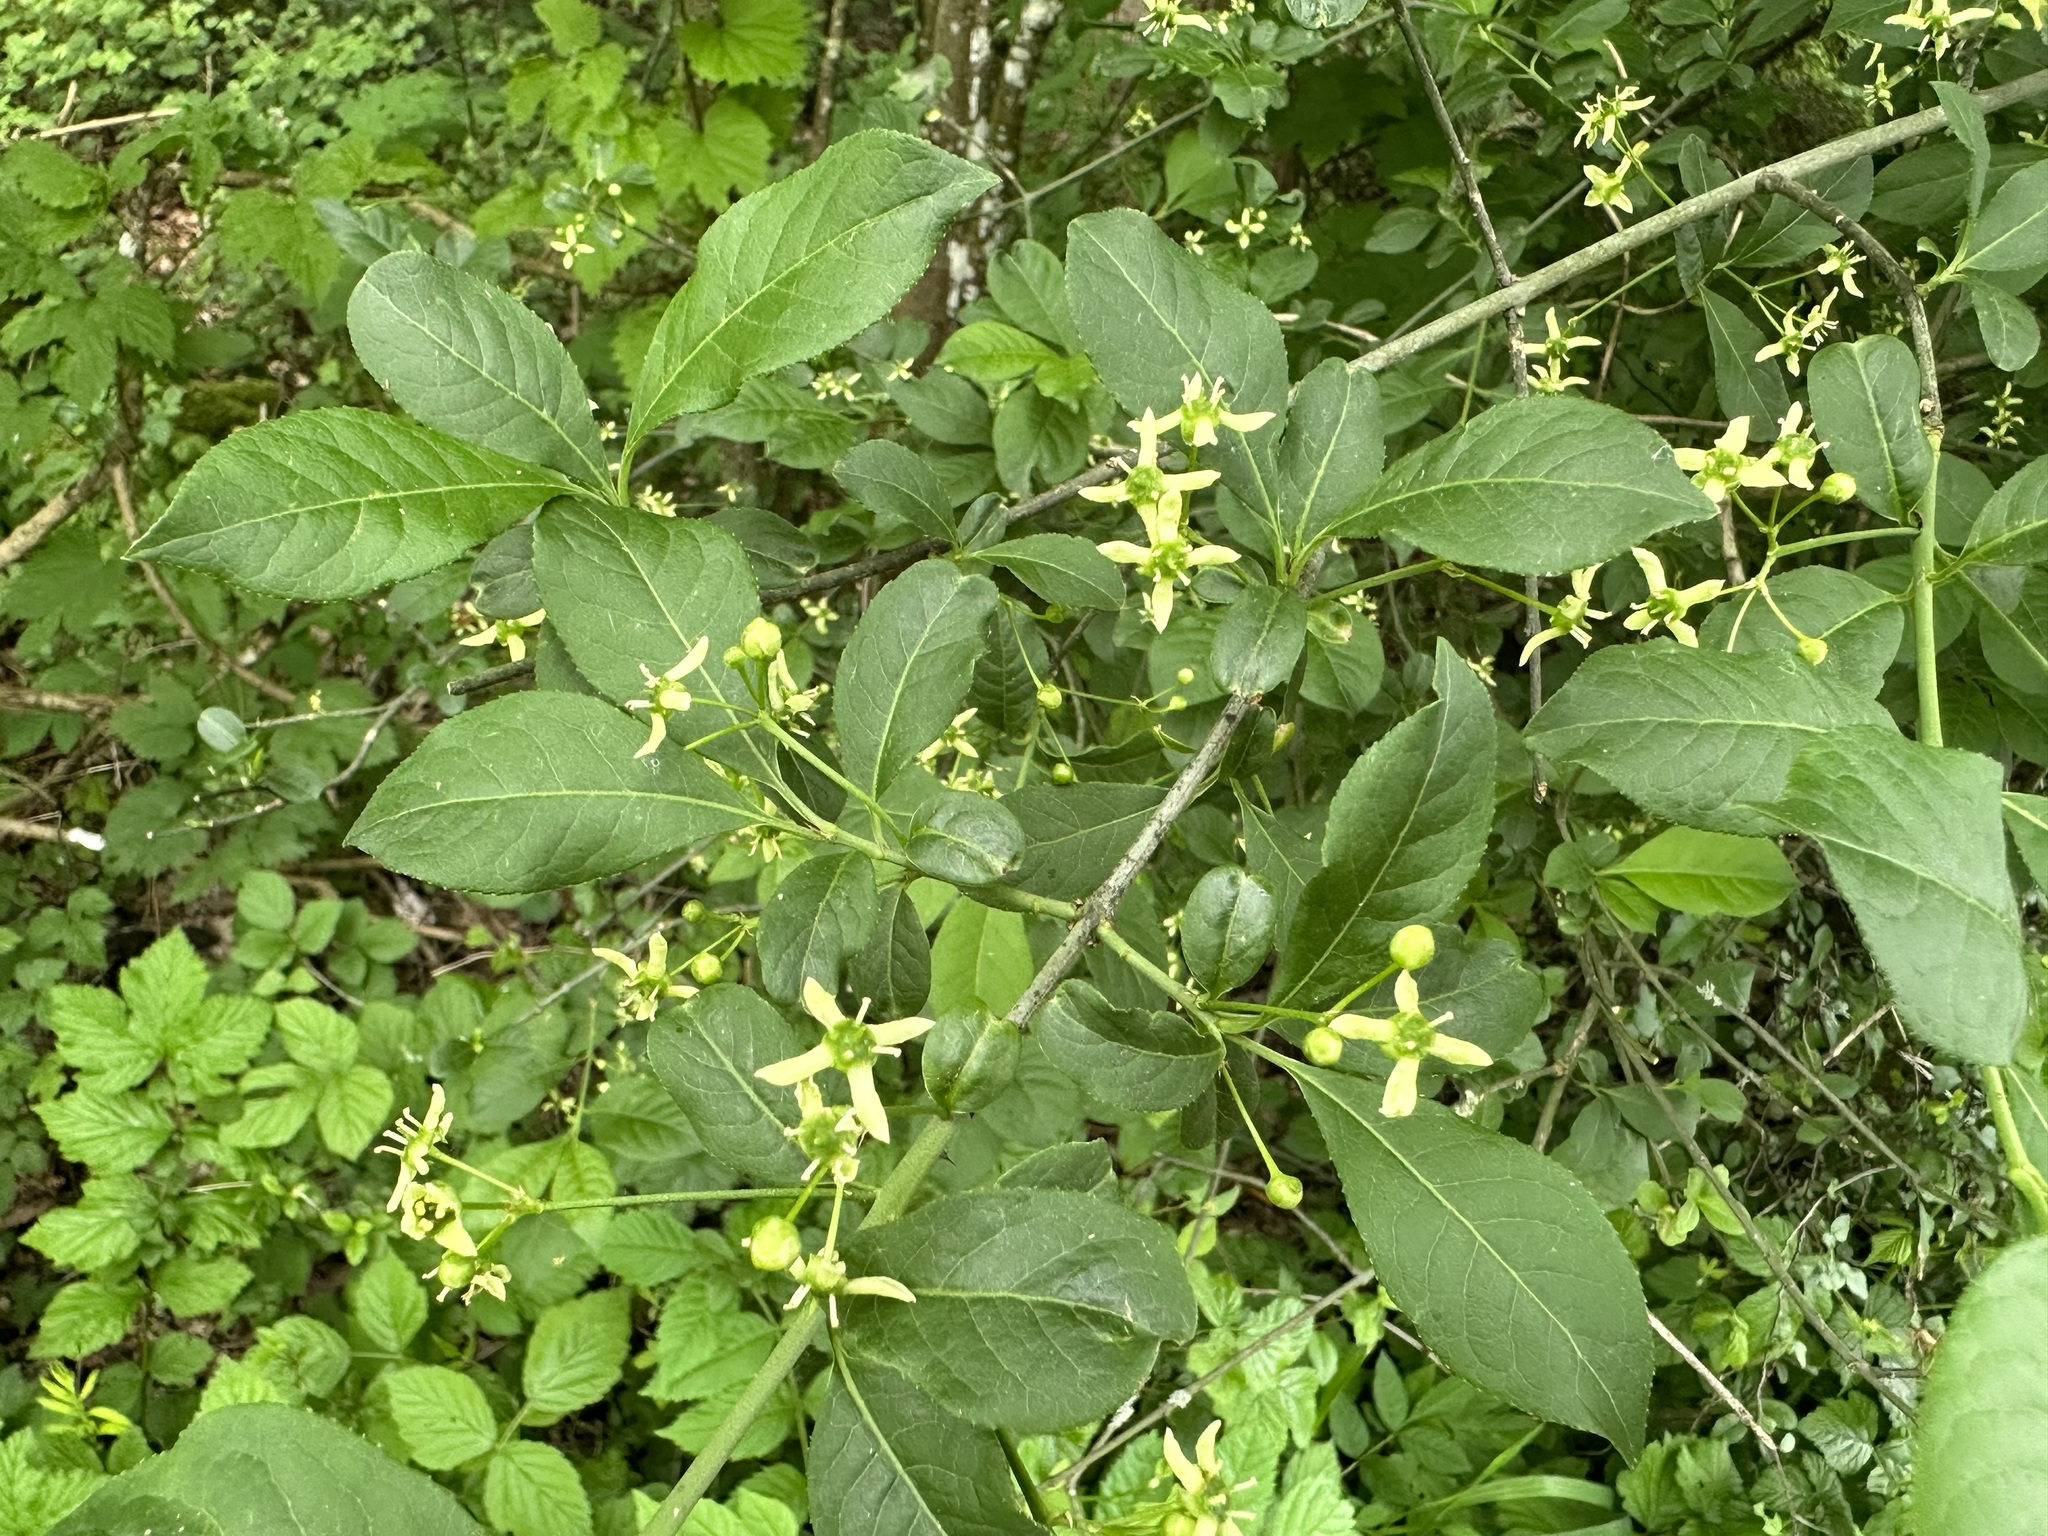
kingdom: Plantae
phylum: Tracheophyta
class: Magnoliopsida
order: Celastrales
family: Celastraceae
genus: Euonymus
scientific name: Euonymus europaeus
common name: Spindle
